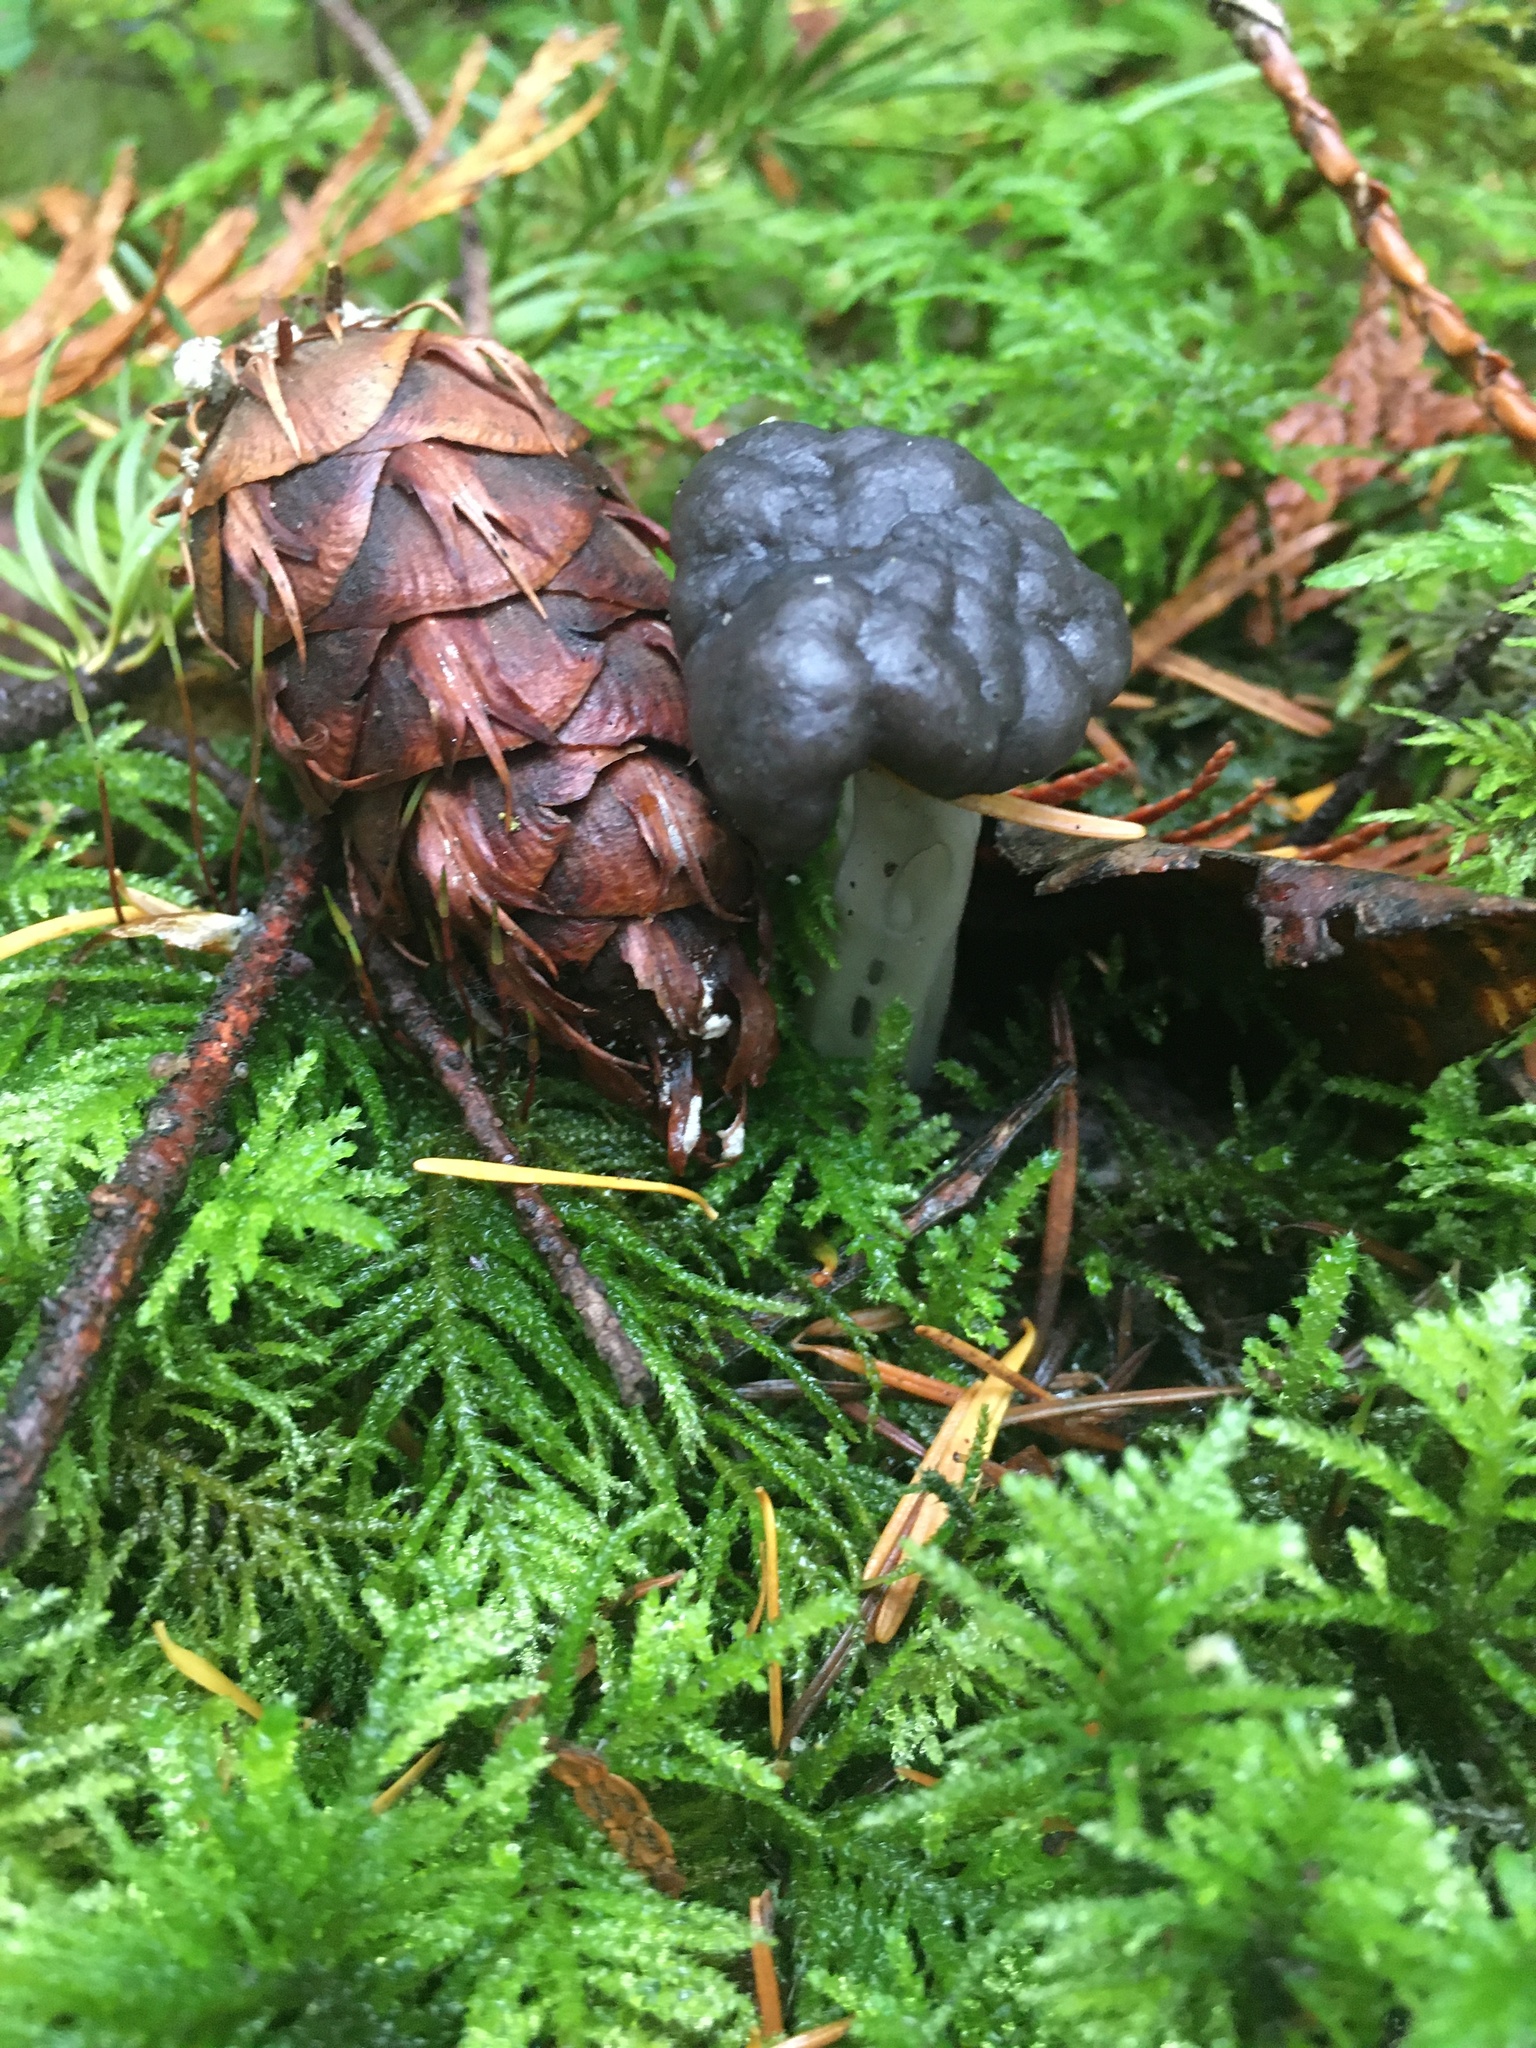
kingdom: Fungi
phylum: Ascomycota
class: Pezizomycetes
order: Pezizales
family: Helvellaceae
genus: Helvella
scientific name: Helvella vespertina
